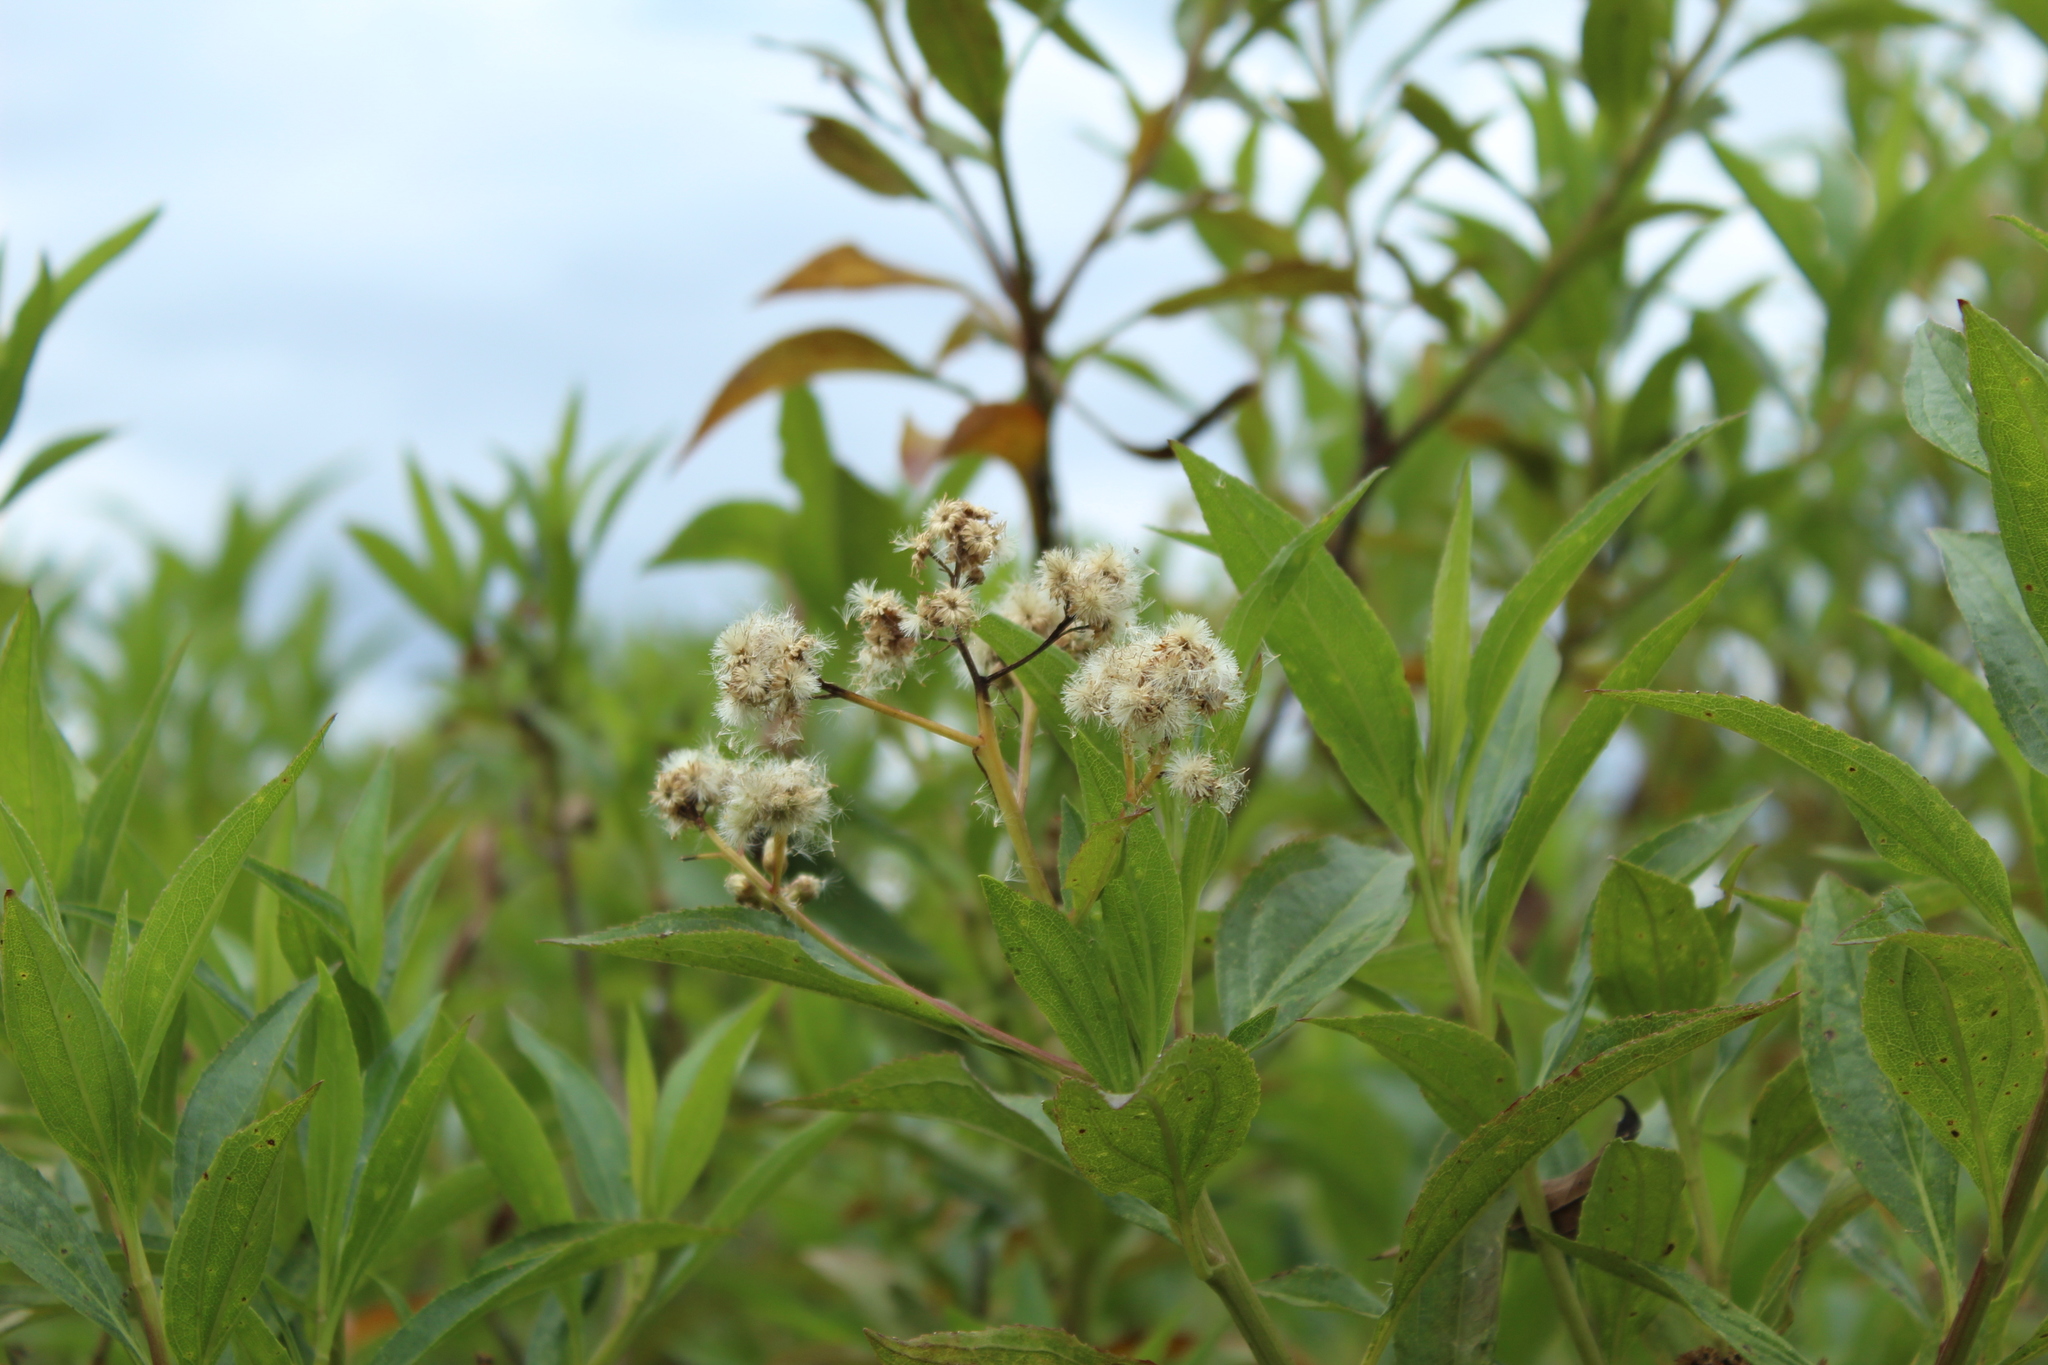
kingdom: Plantae
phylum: Tracheophyta
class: Magnoliopsida
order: Asterales
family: Asteraceae
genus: Baccharis
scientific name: Baccharis latifolia
